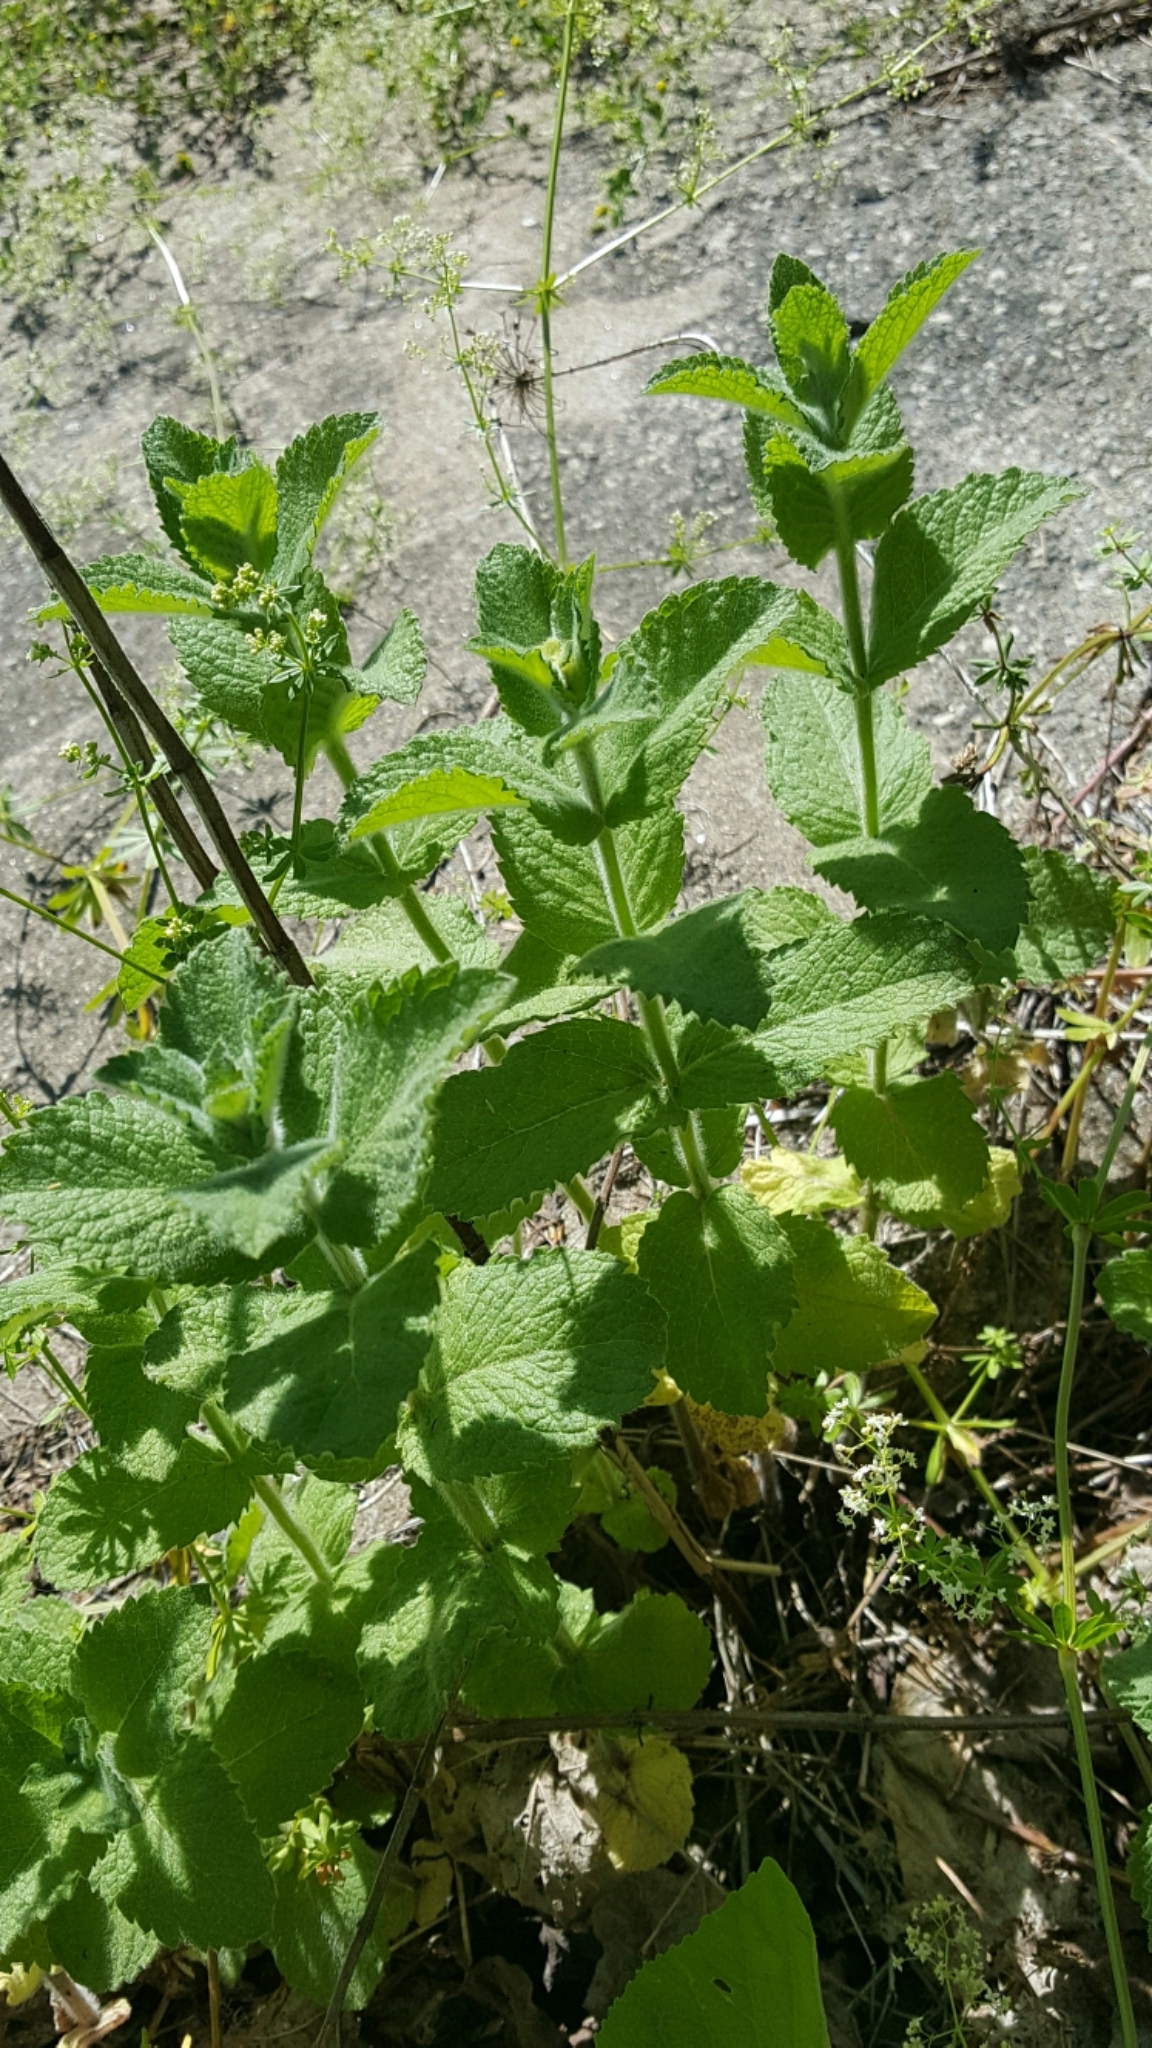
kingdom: Plantae
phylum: Tracheophyta
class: Magnoliopsida
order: Lamiales
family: Lamiaceae
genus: Mentha
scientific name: Mentha rotundifolia
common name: Bigleaf mint
